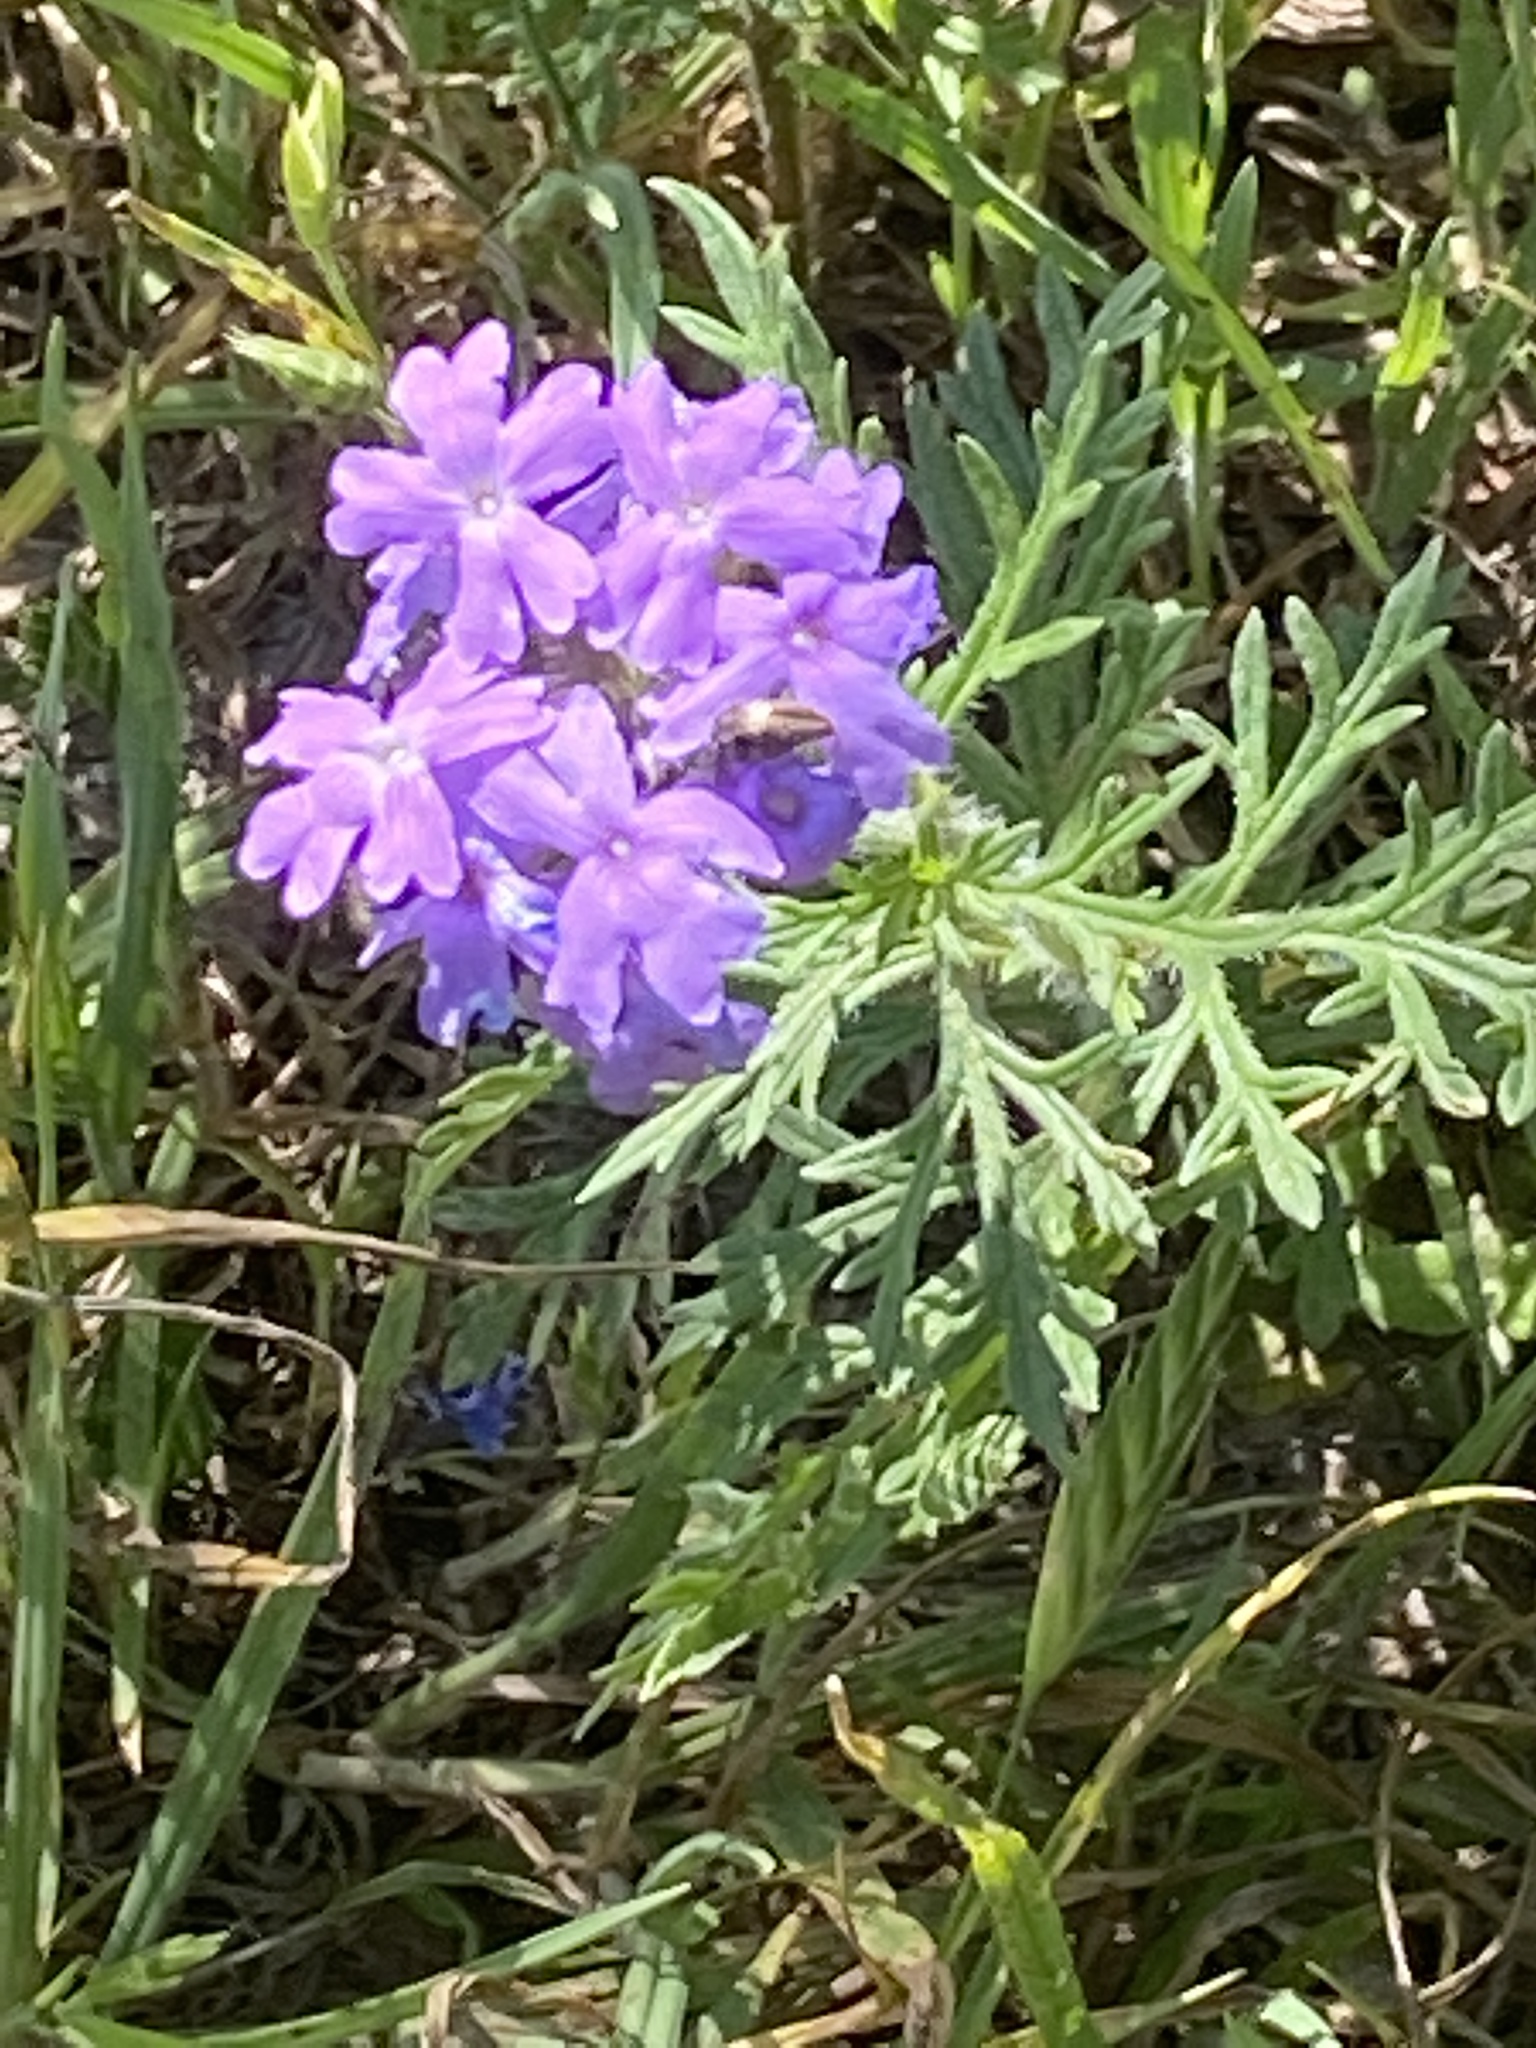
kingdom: Plantae
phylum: Tracheophyta
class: Magnoliopsida
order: Lamiales
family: Verbenaceae
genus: Verbena
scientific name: Verbena bipinnatifida
